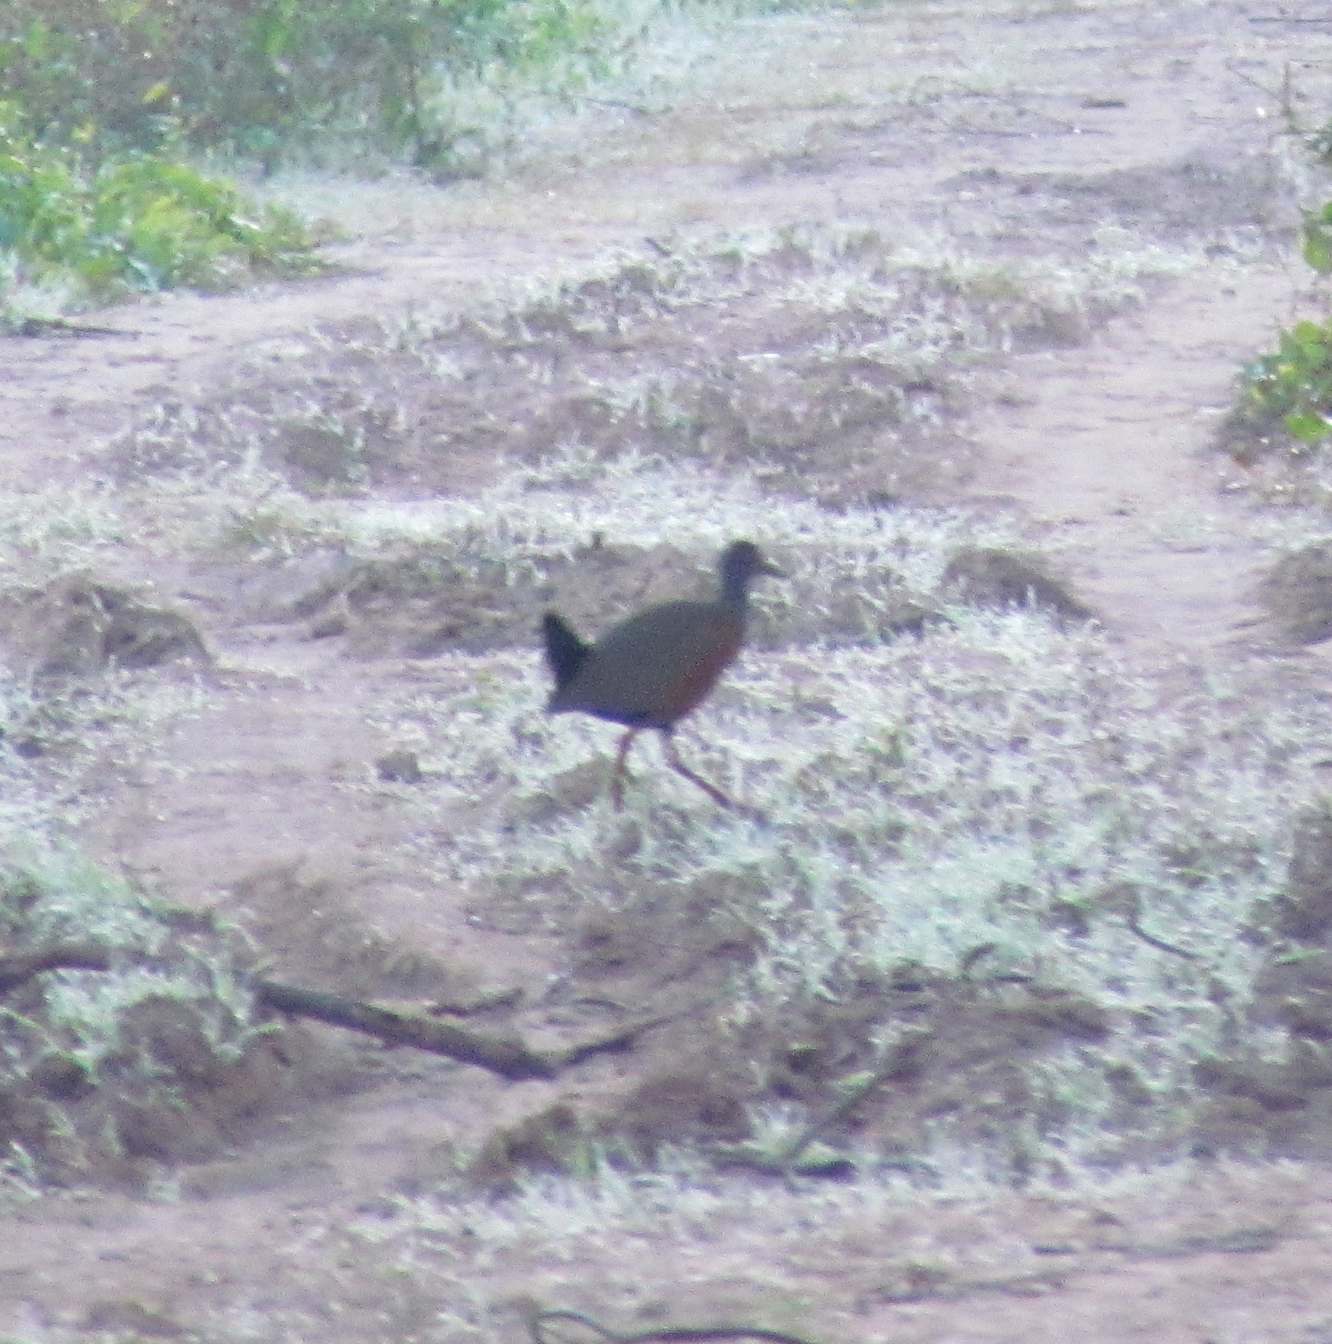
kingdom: Animalia
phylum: Chordata
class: Aves
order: Gruiformes
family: Rallidae
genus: Aramides
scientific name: Aramides cajanea
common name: Gray-necked wood-rail
